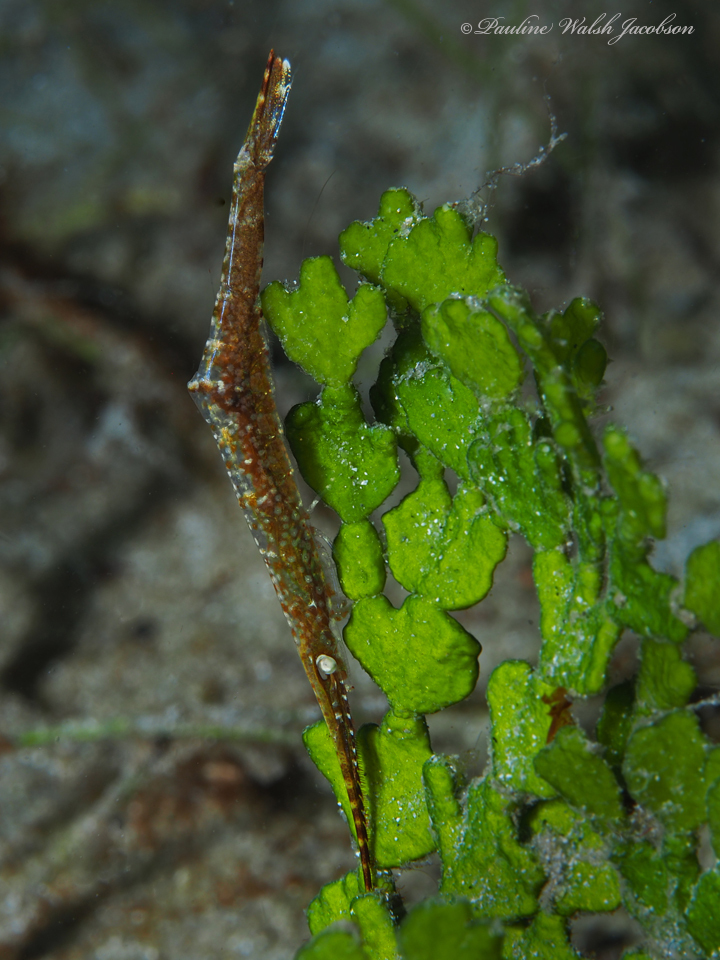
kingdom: Animalia
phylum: Arthropoda
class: Malacostraca
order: Decapoda
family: Hippolytidae
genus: Tozeuma
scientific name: Tozeuma serratum
